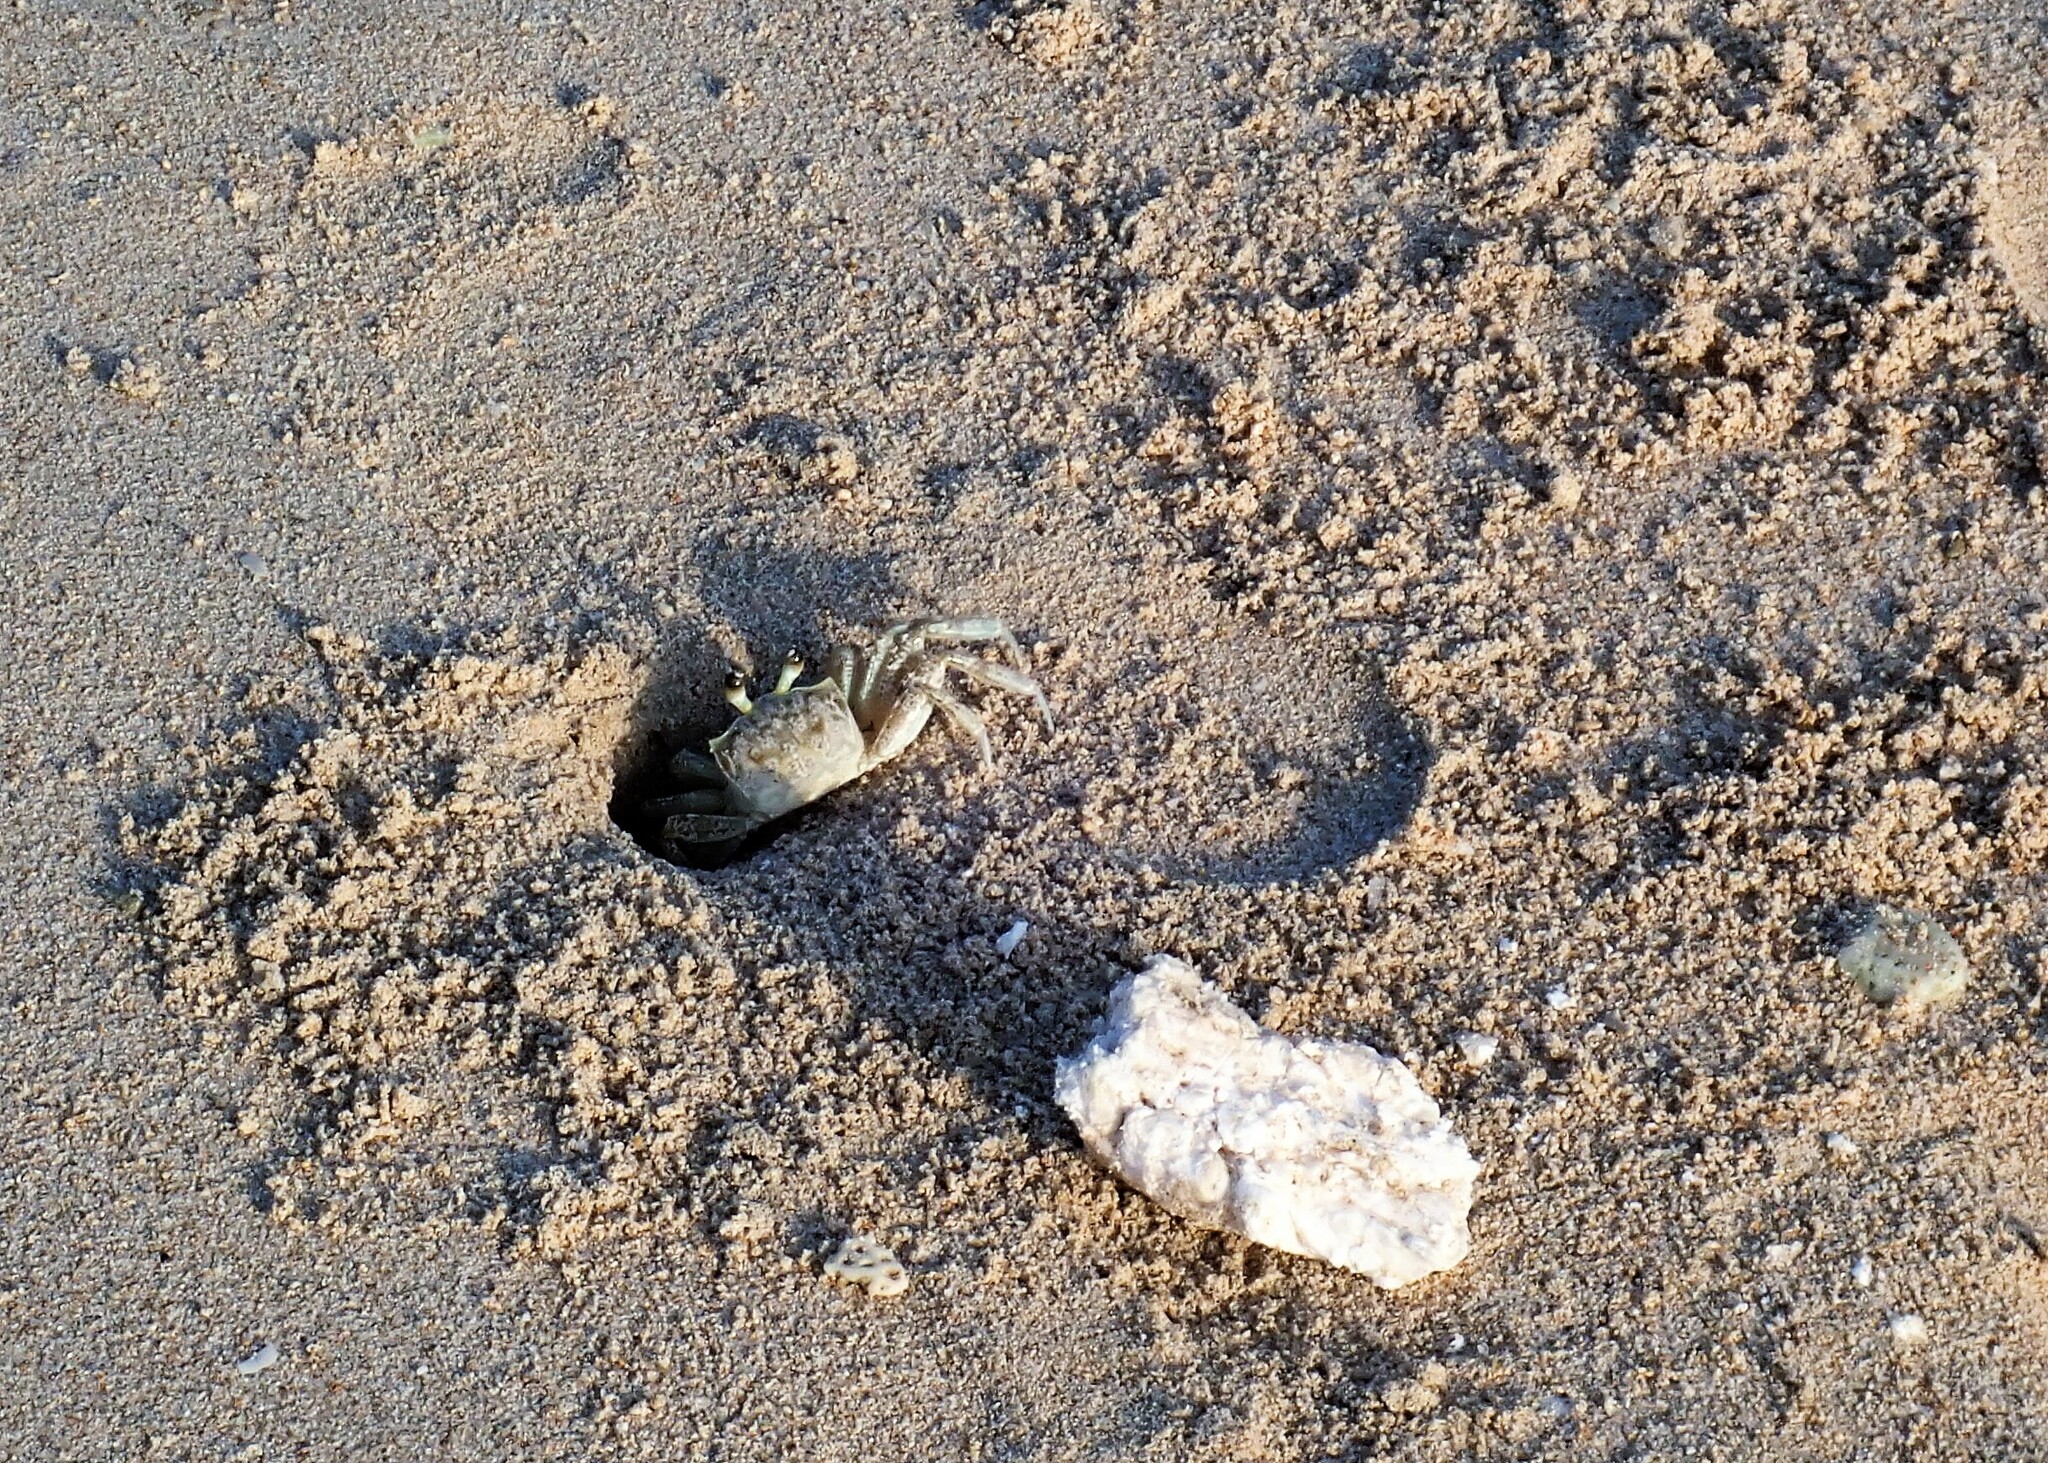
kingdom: Animalia
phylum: Arthropoda
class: Malacostraca
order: Decapoda
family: Ocypodidae
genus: Ocypode
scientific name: Ocypode quadrata
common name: Ghost crab
